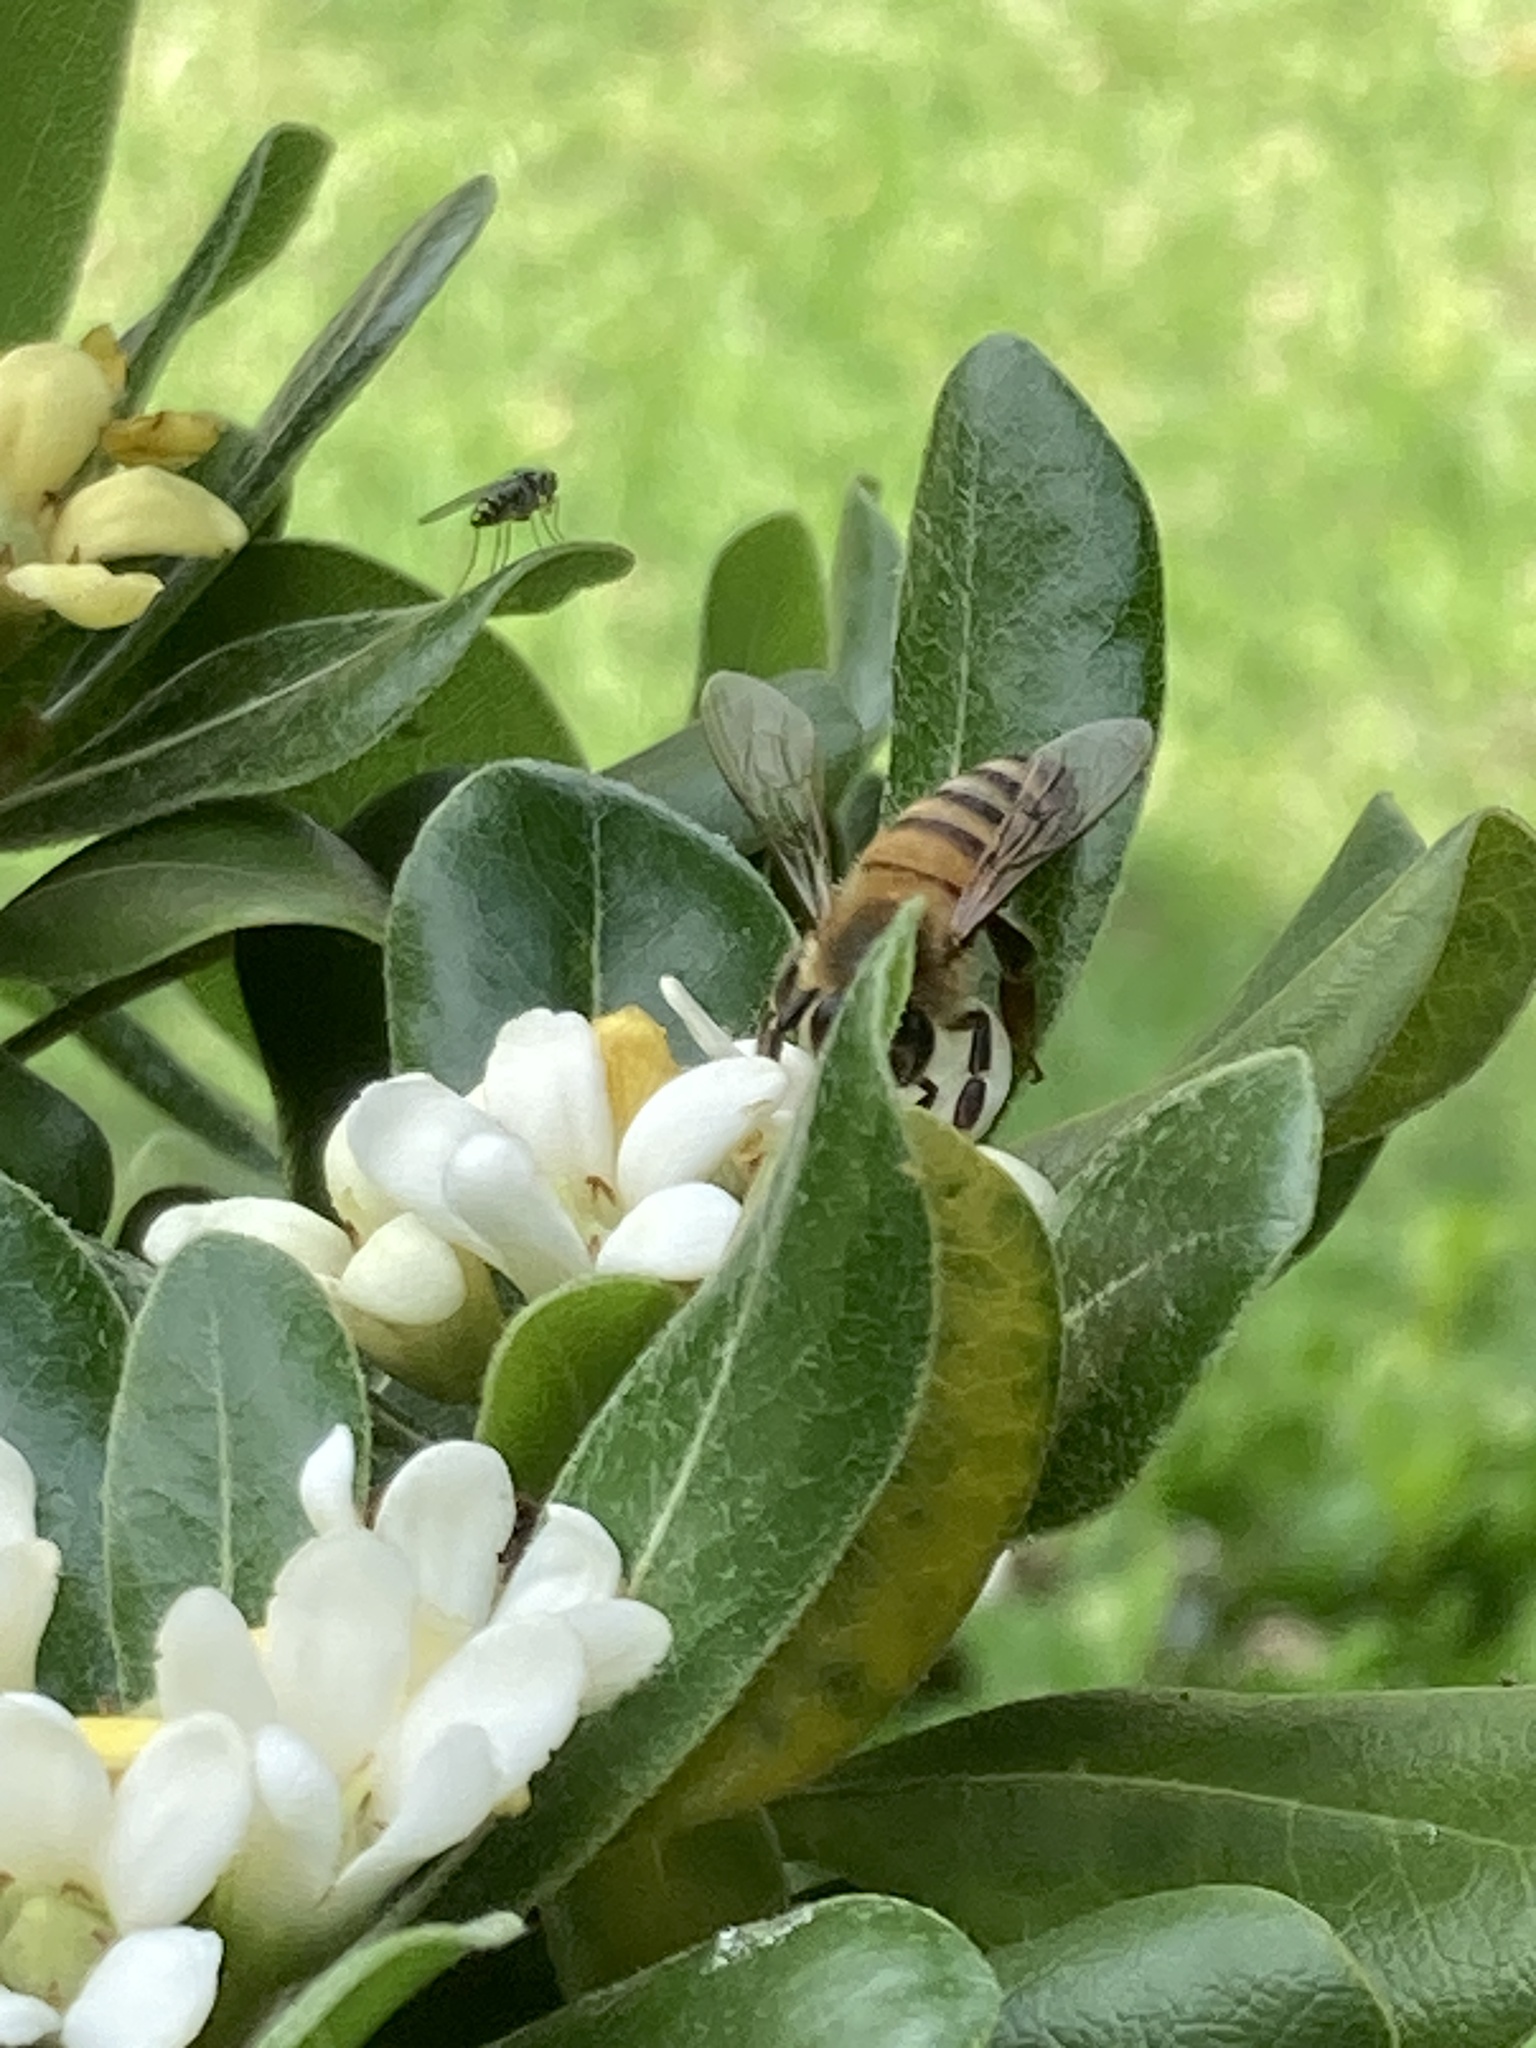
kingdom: Animalia
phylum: Arthropoda
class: Insecta
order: Hymenoptera
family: Apidae
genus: Apis
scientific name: Apis mellifera
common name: Honey bee
